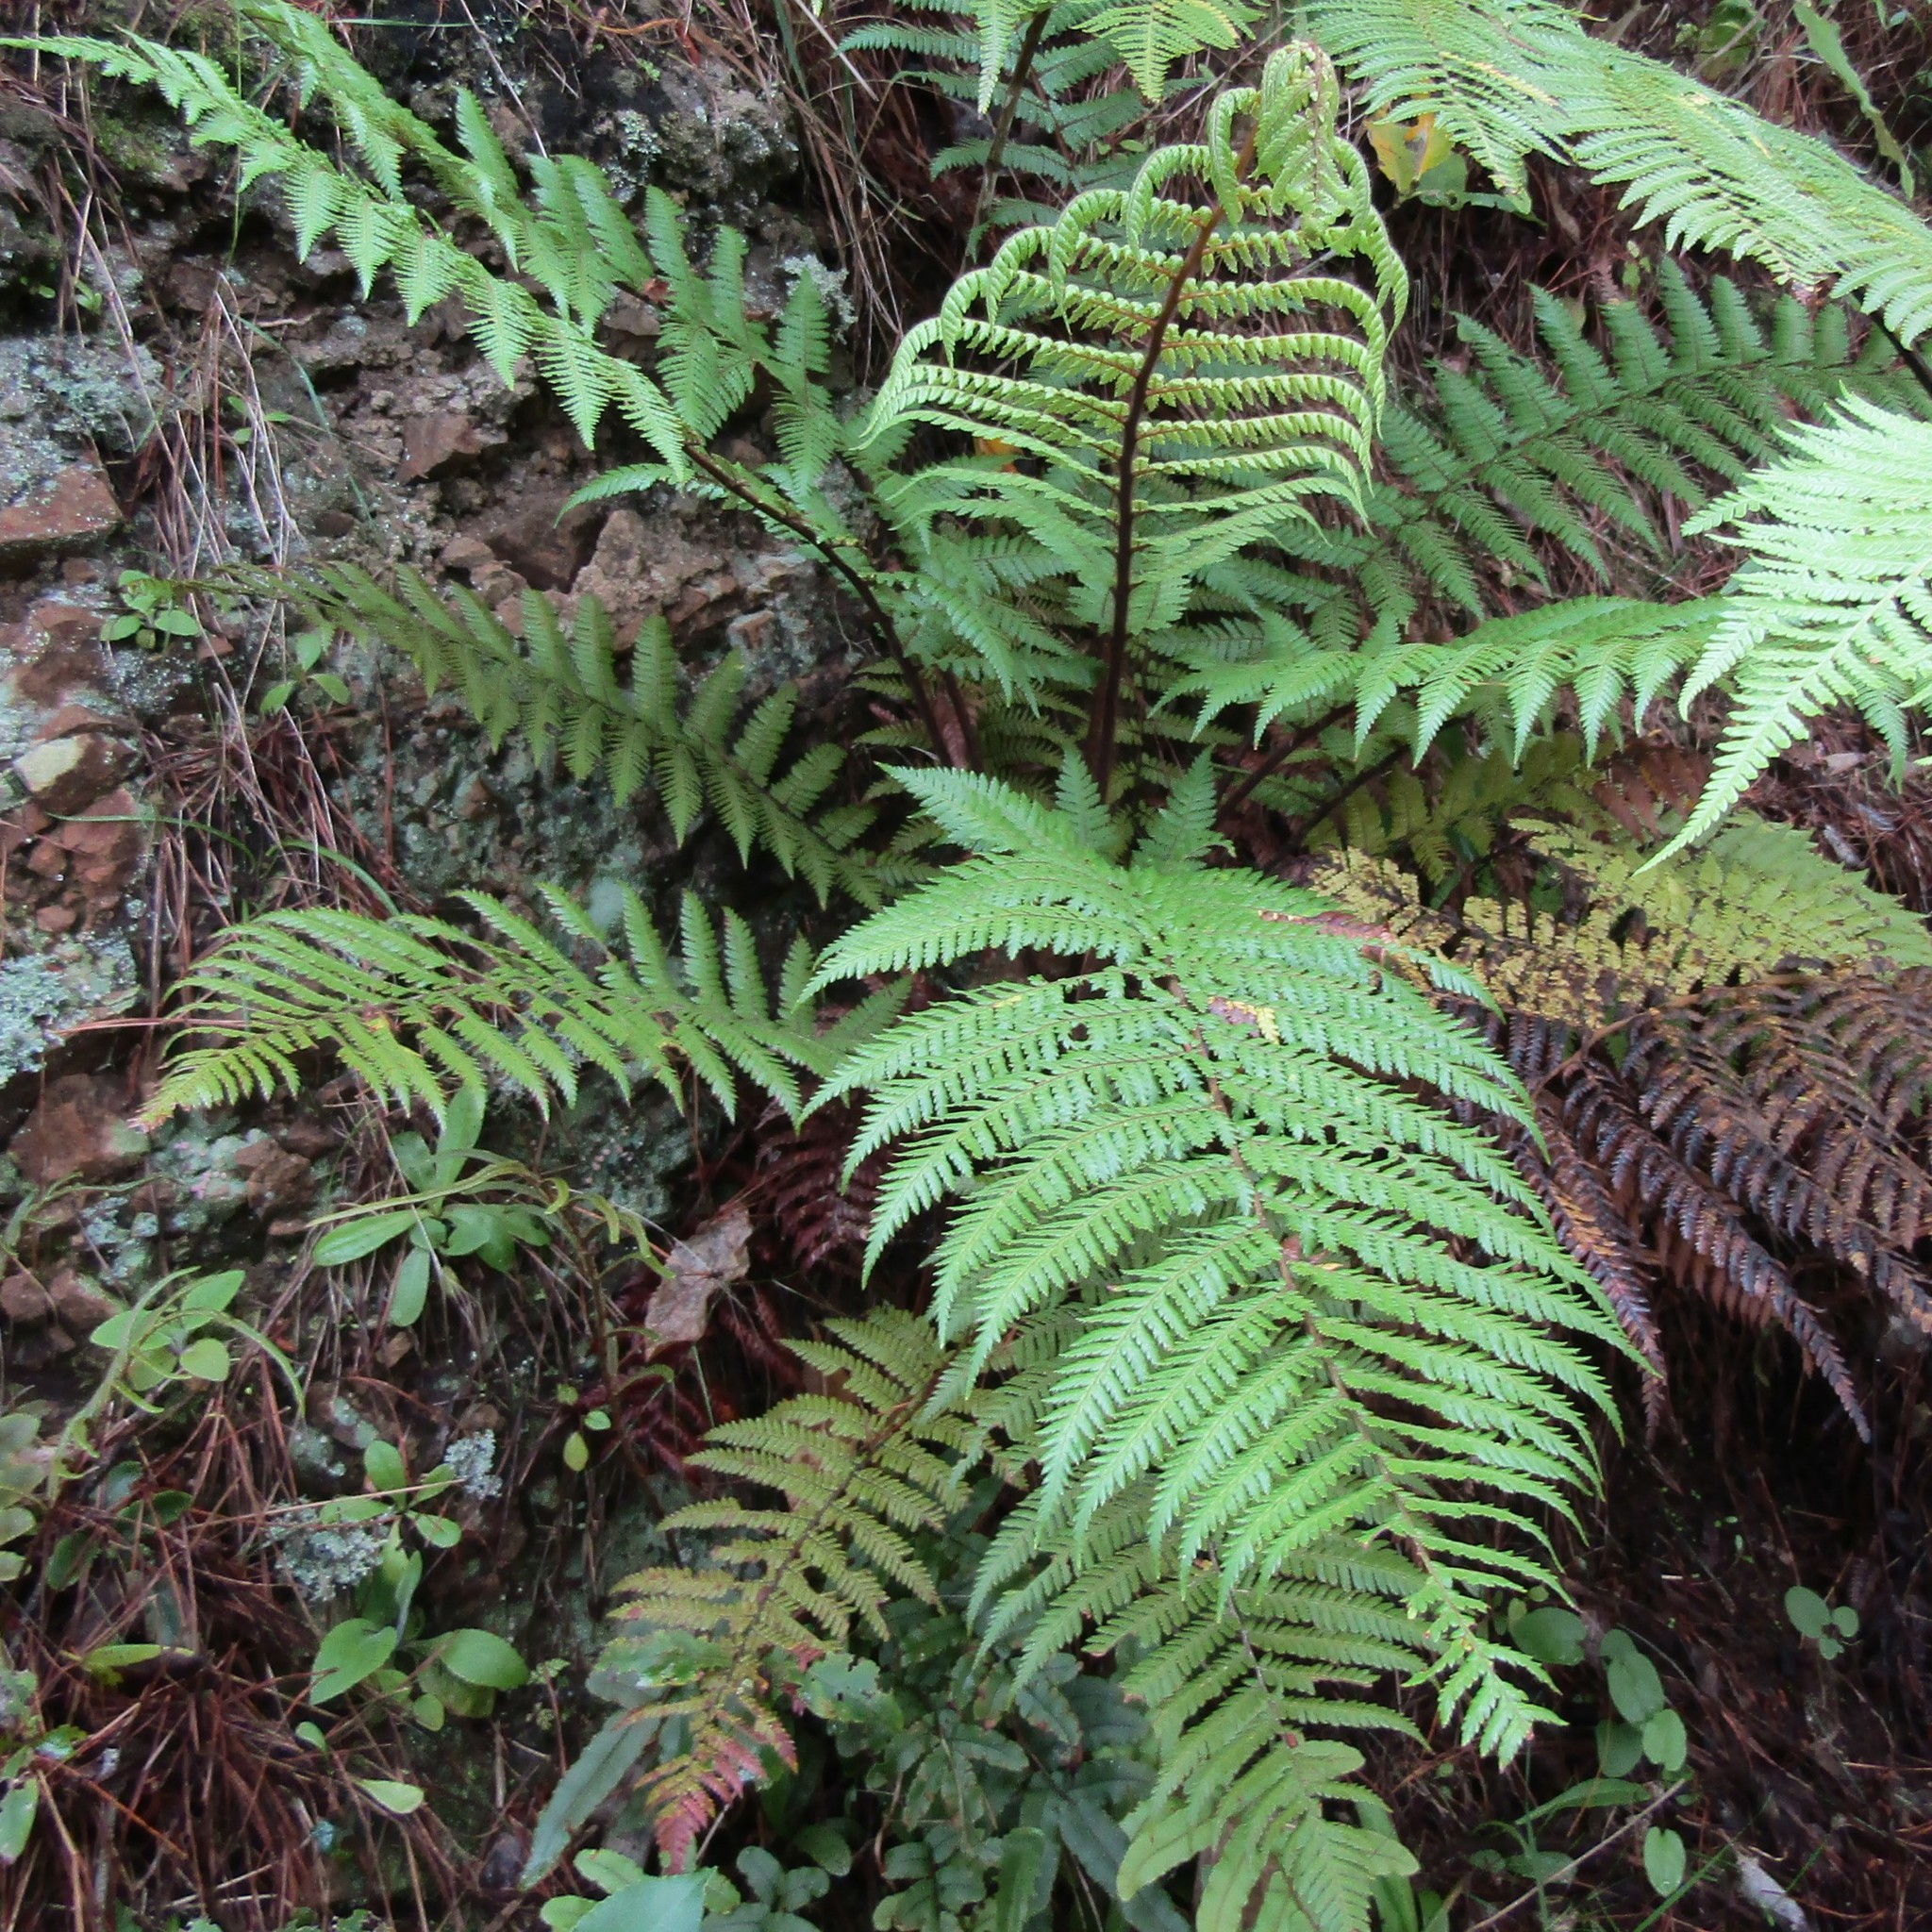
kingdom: Plantae
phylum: Tracheophyta
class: Polypodiopsida
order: Cyatheales
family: Dicksoniaceae
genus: Dicksonia
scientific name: Dicksonia squarrosa
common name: Hard treefern
